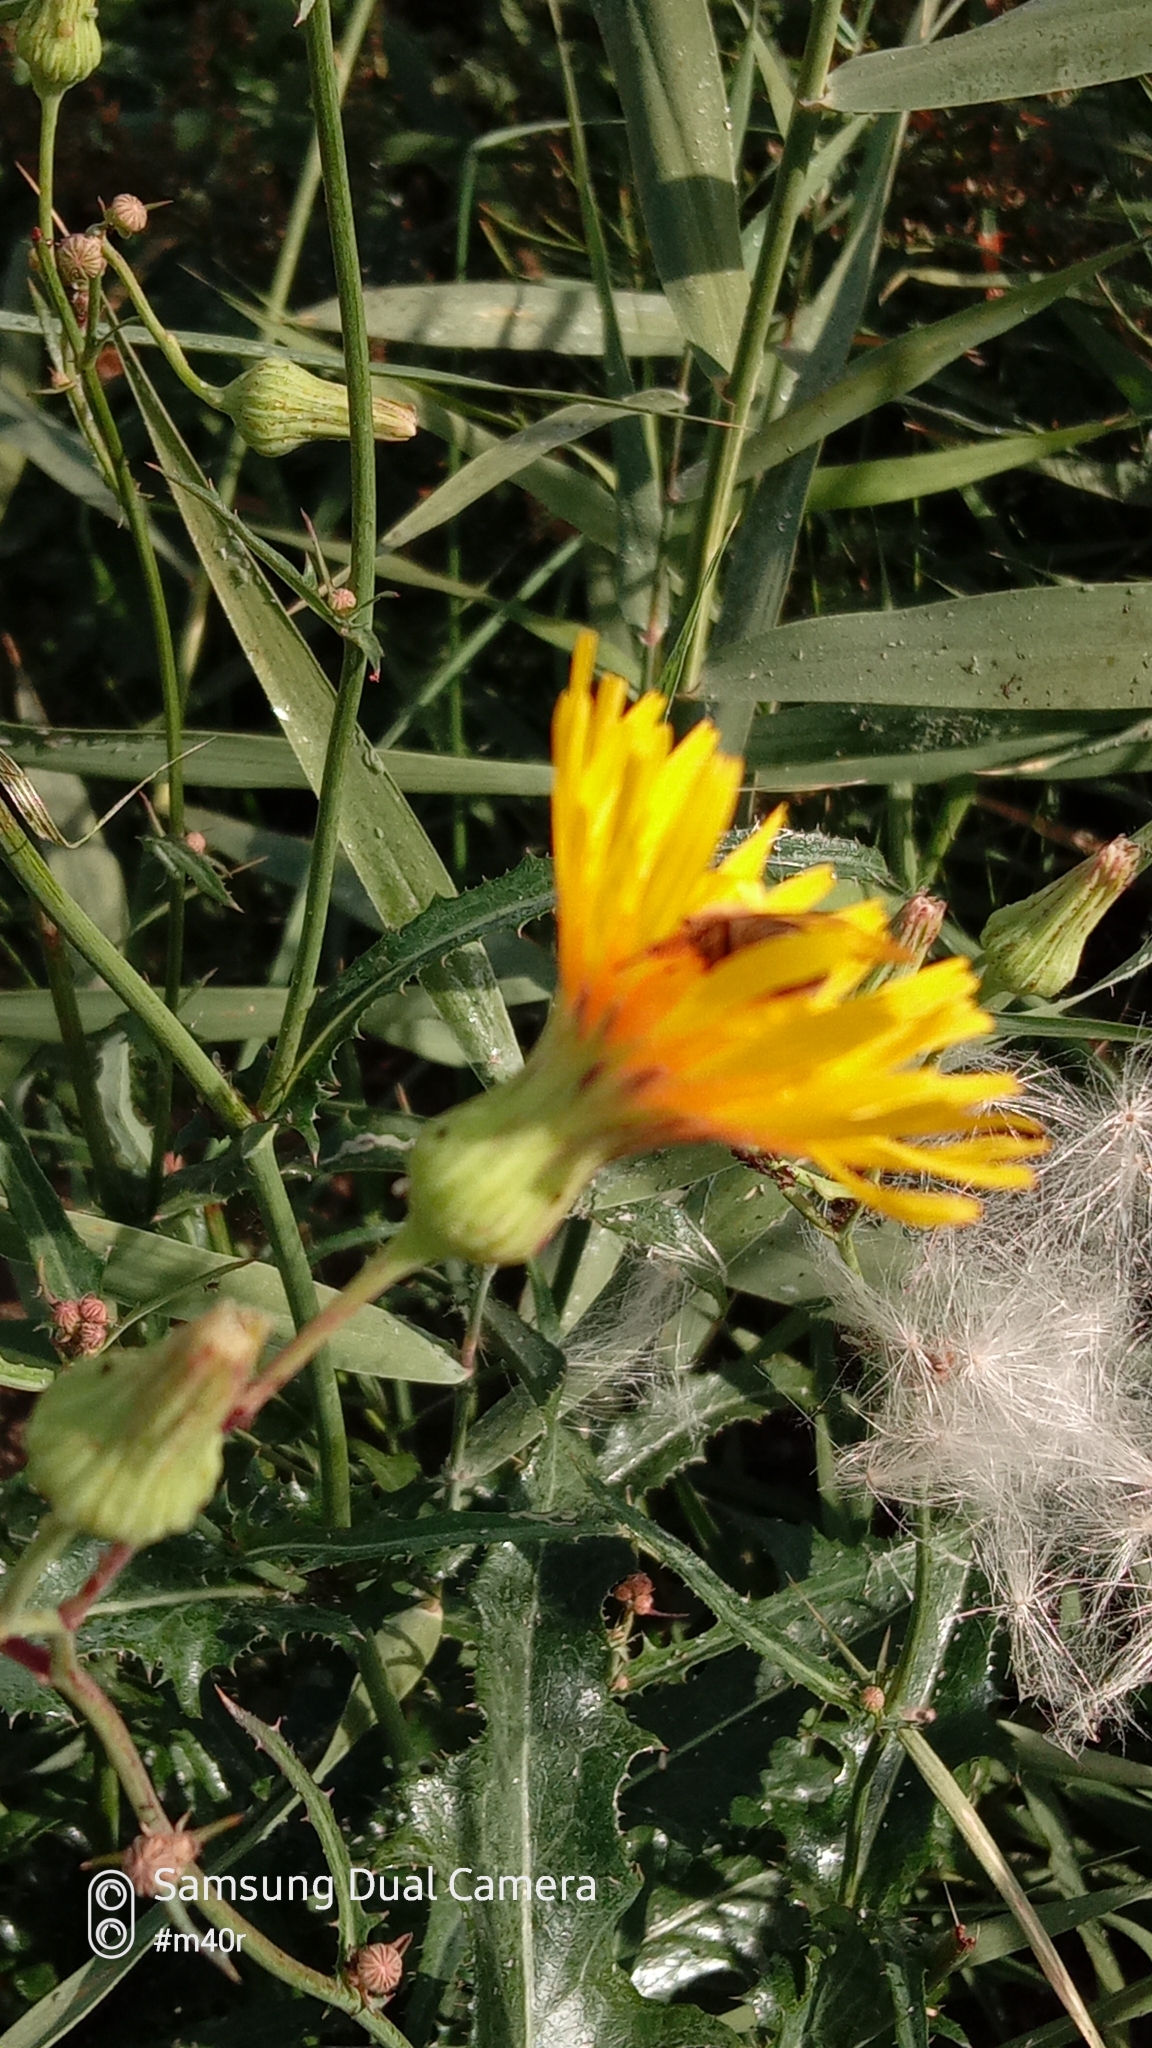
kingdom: Animalia
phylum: Arthropoda
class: Insecta
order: Hymenoptera
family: Apidae
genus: Apis
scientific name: Apis mellifera
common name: Honey bee
